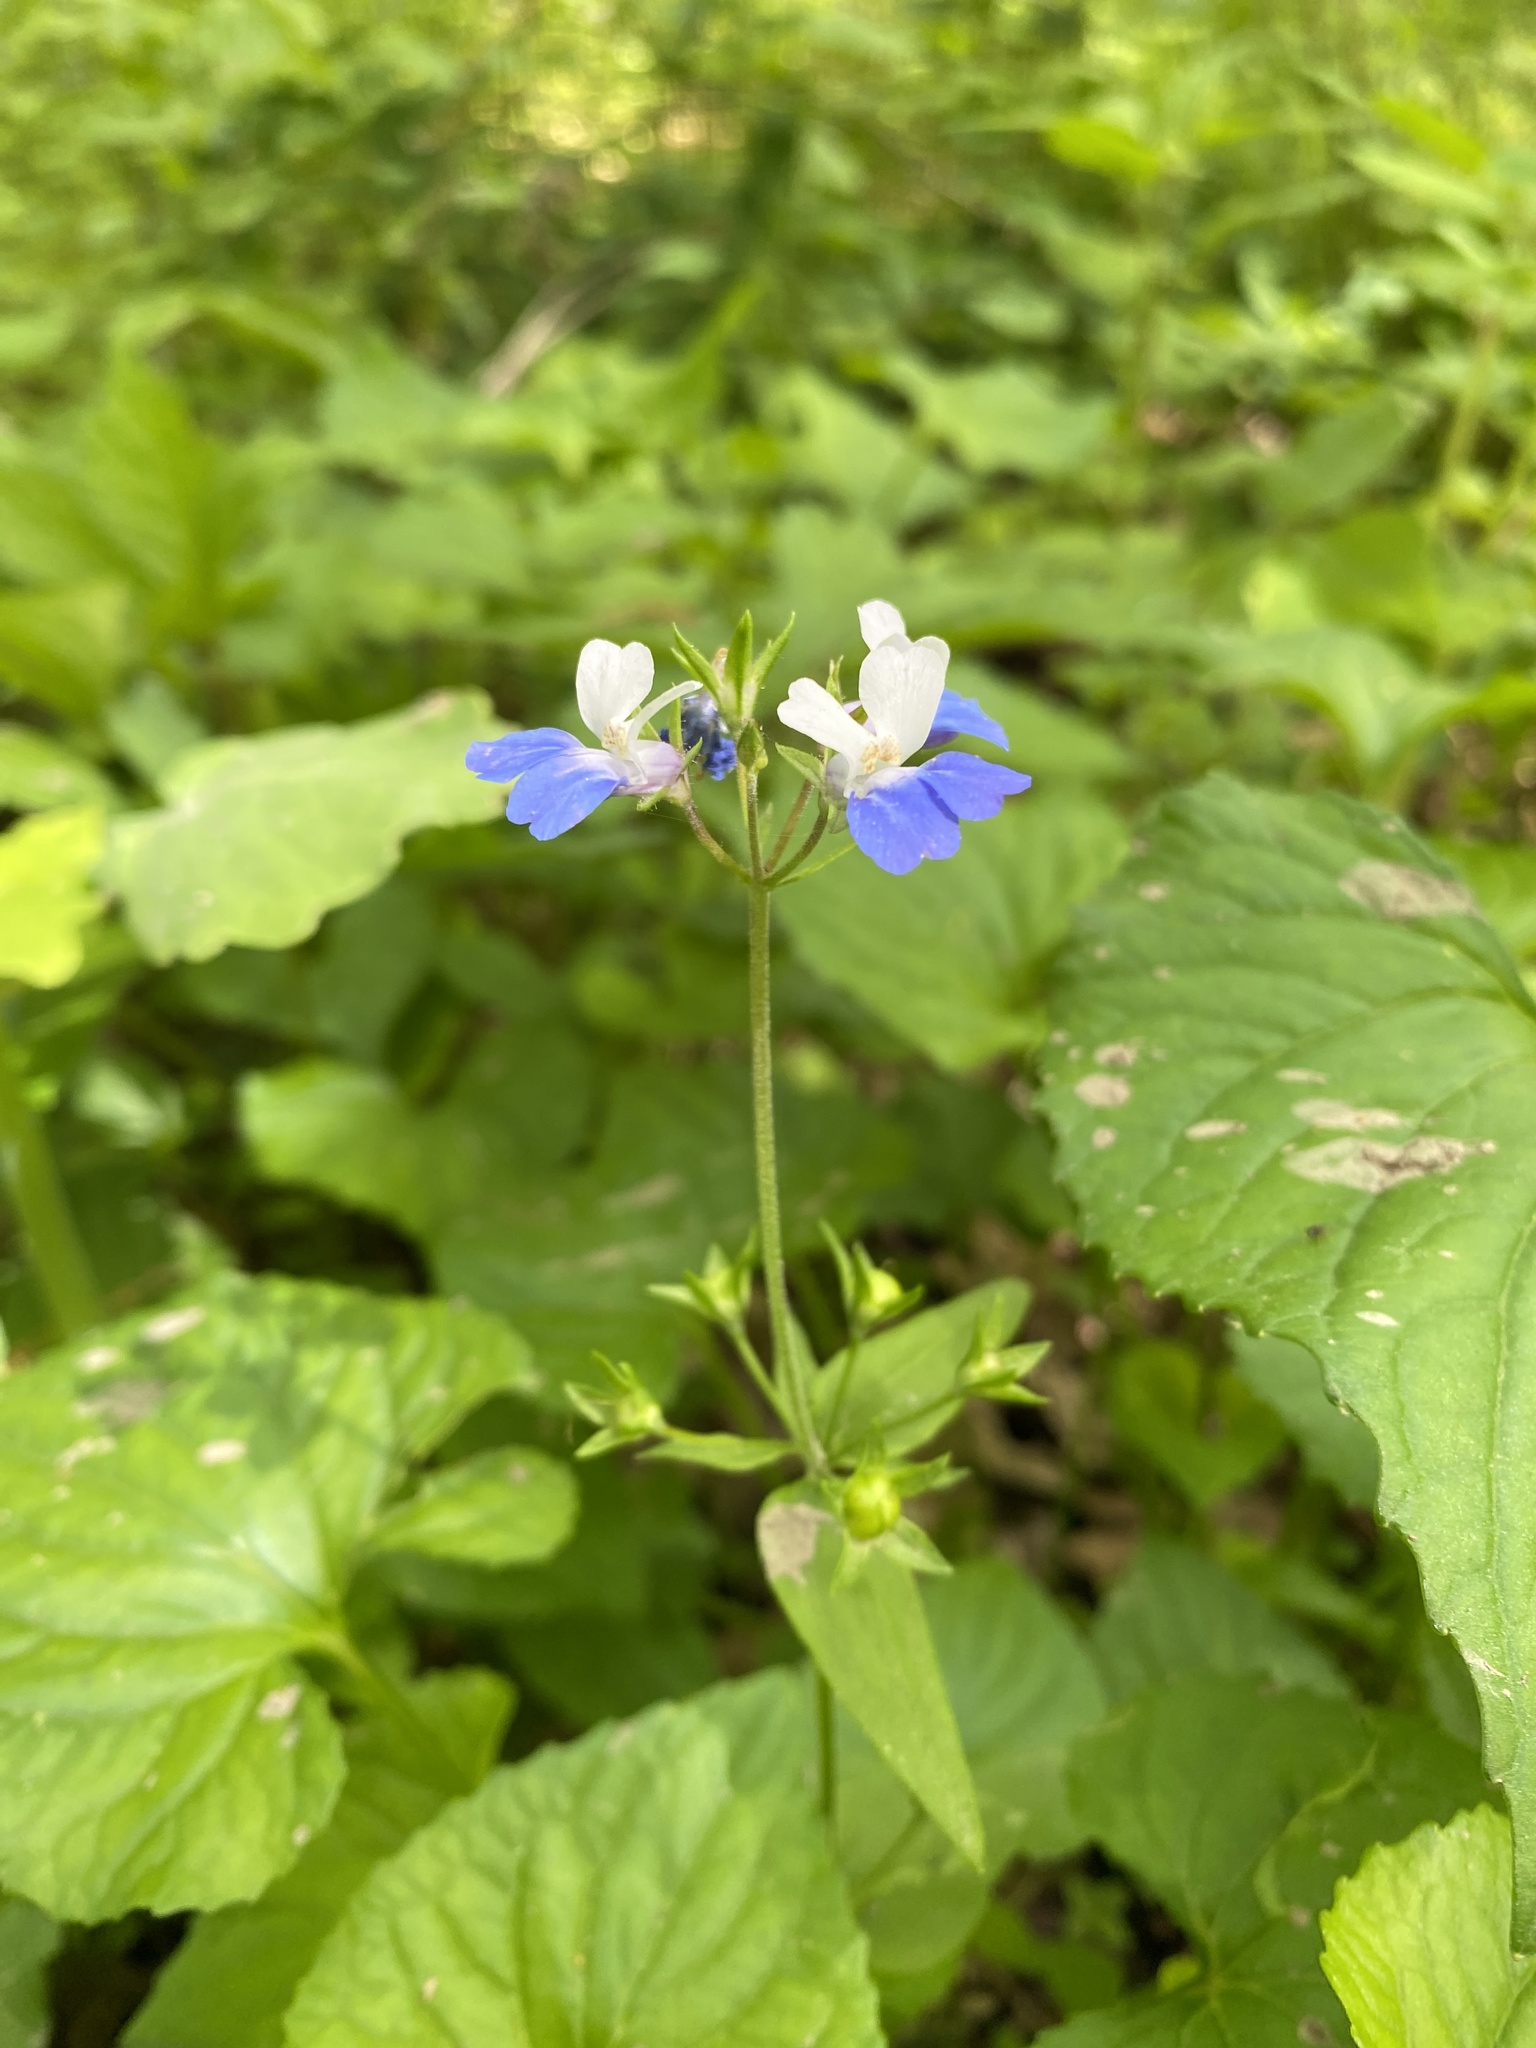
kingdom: Plantae
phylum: Tracheophyta
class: Magnoliopsida
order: Lamiales
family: Plantaginaceae
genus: Collinsia
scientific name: Collinsia verna
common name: Broad-leaved collinsia
